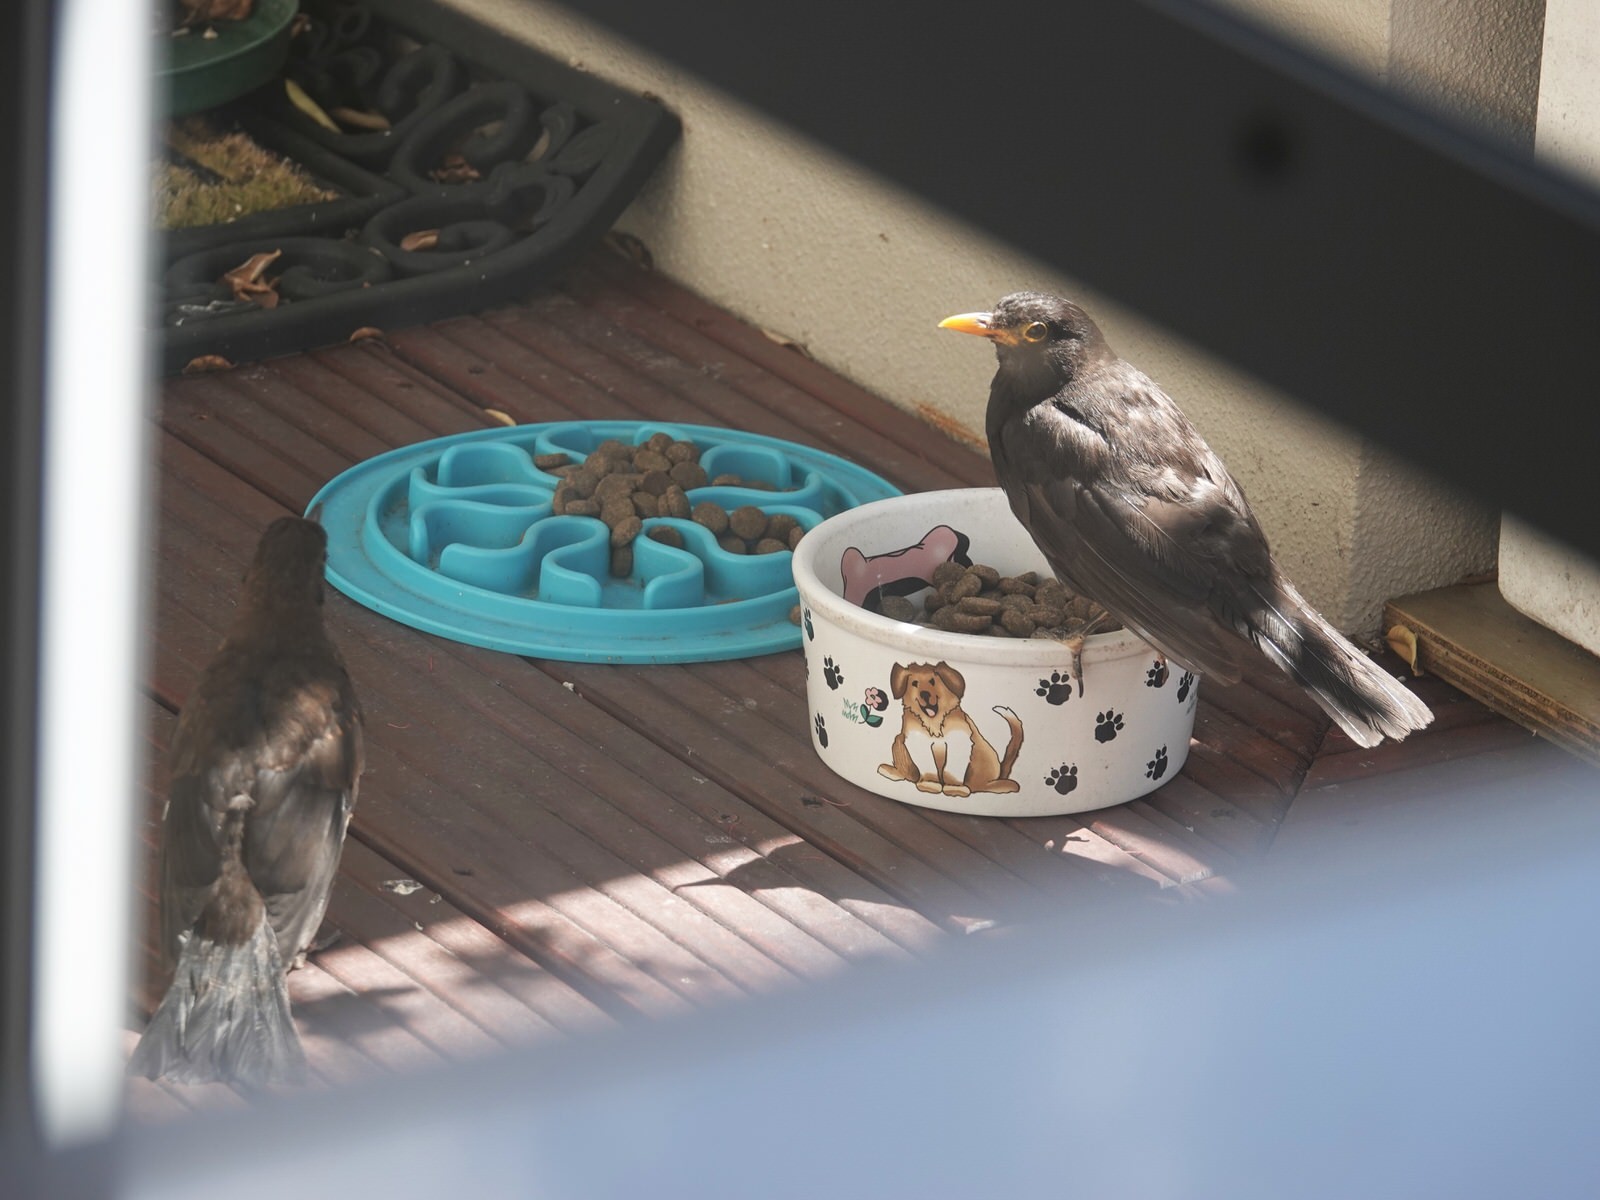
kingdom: Animalia
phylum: Chordata
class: Aves
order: Passeriformes
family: Turdidae
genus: Turdus
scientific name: Turdus merula
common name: Common blackbird
